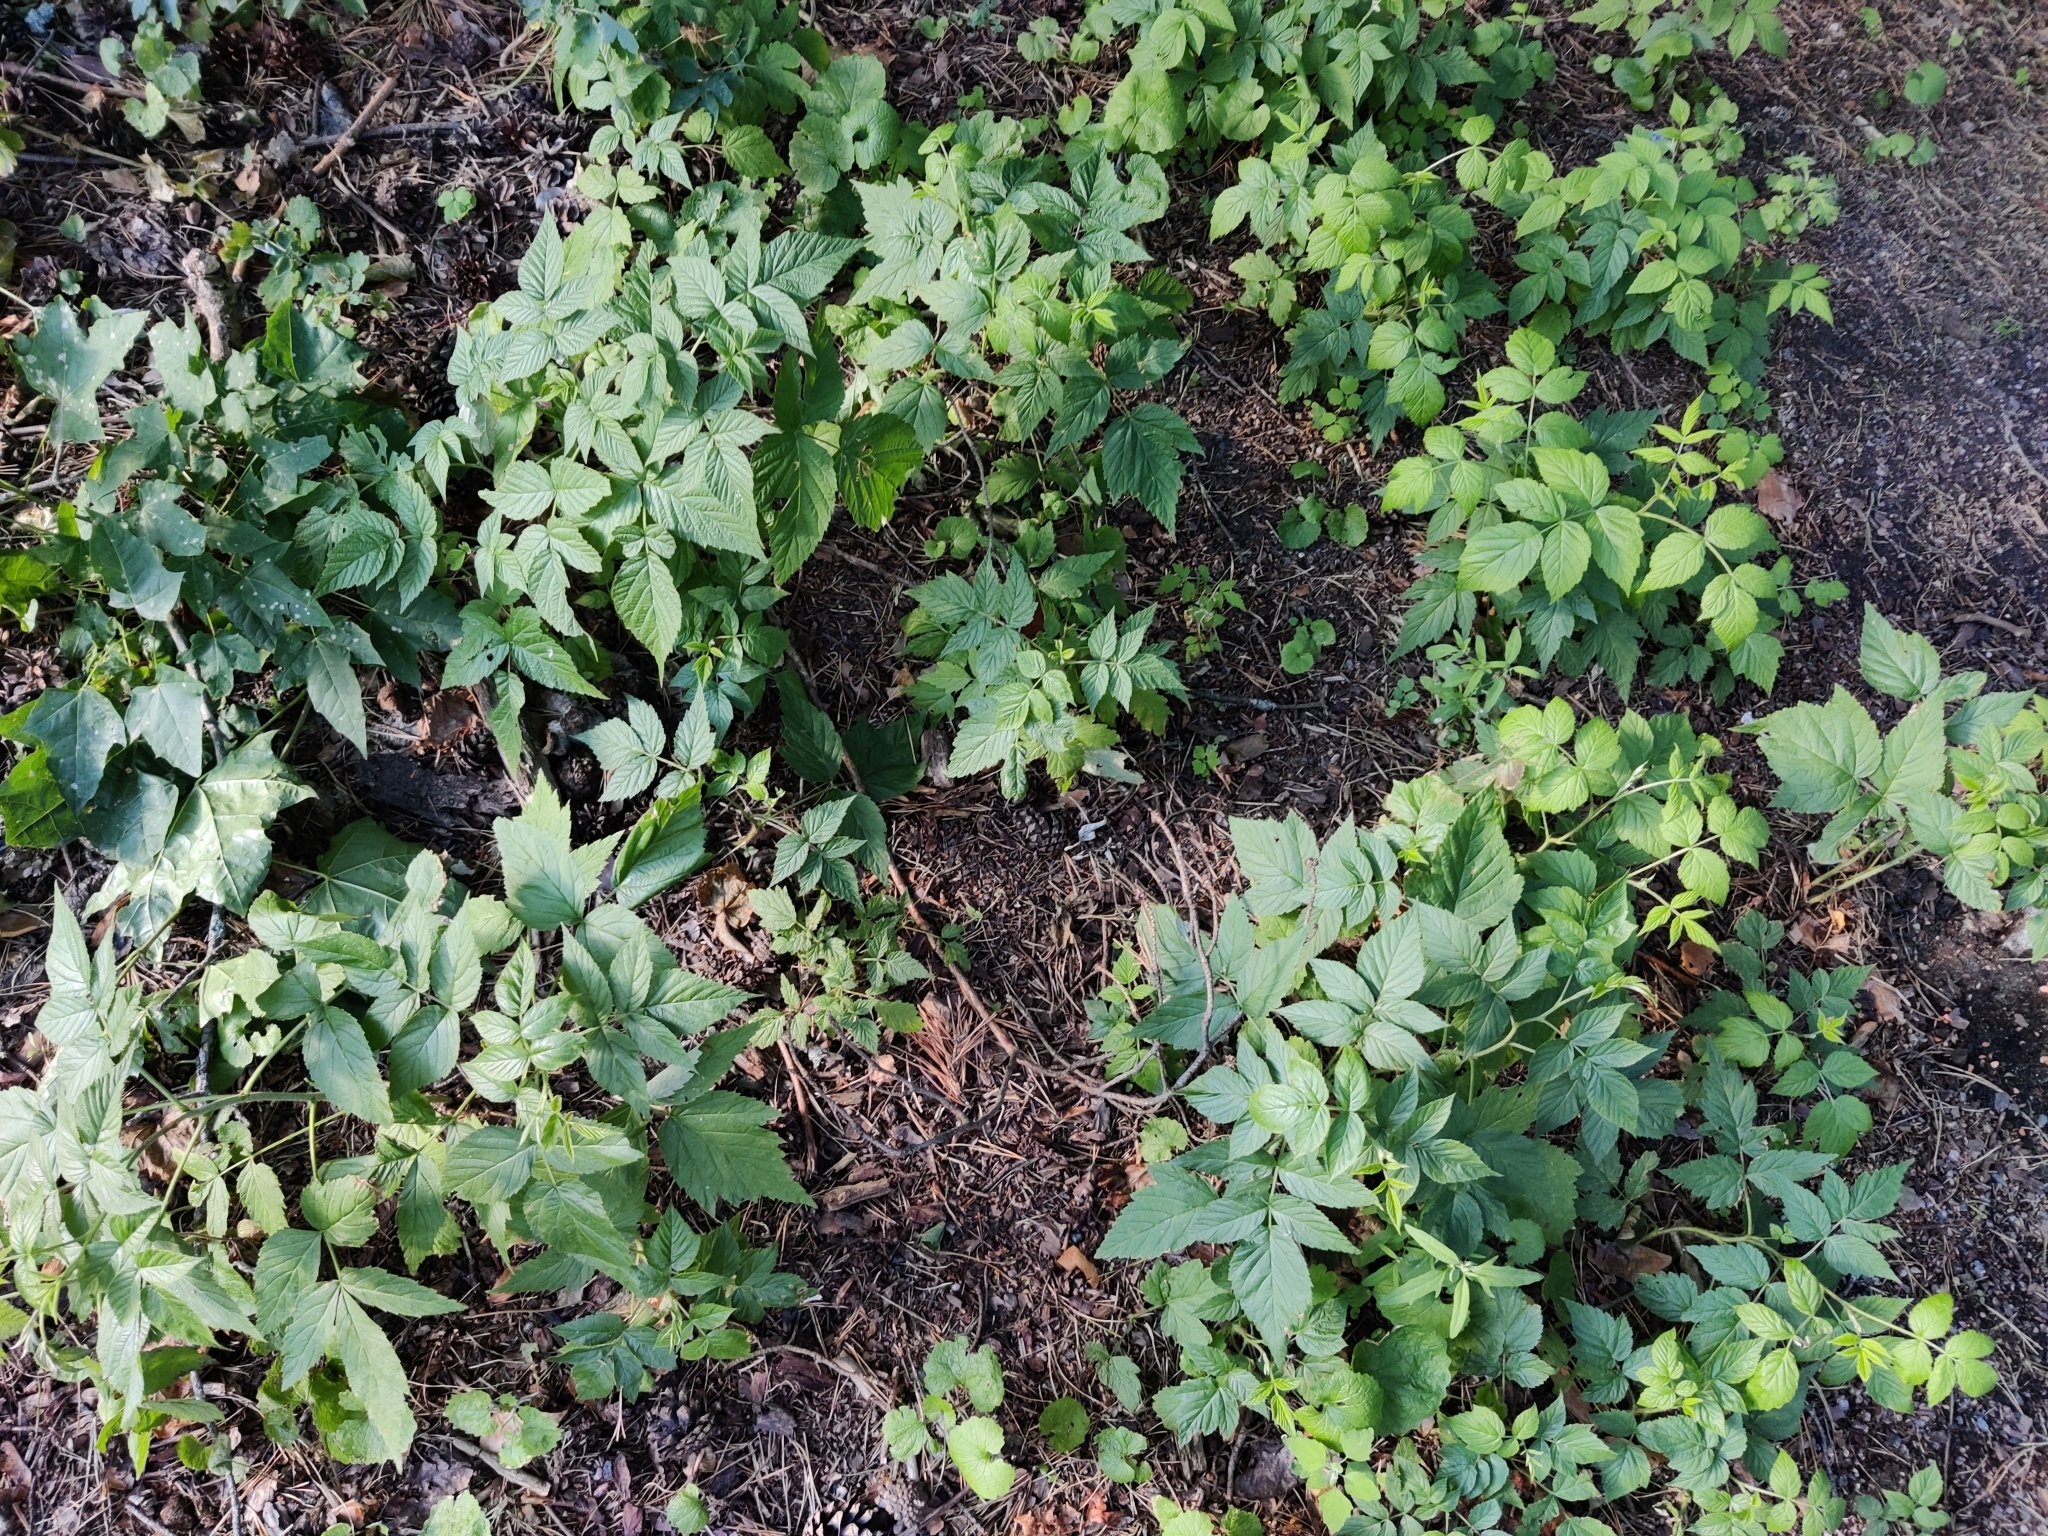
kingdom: Plantae
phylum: Tracheophyta
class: Magnoliopsida
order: Rosales
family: Rosaceae
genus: Rubus
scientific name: Rubus idaeus
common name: Raspberry
